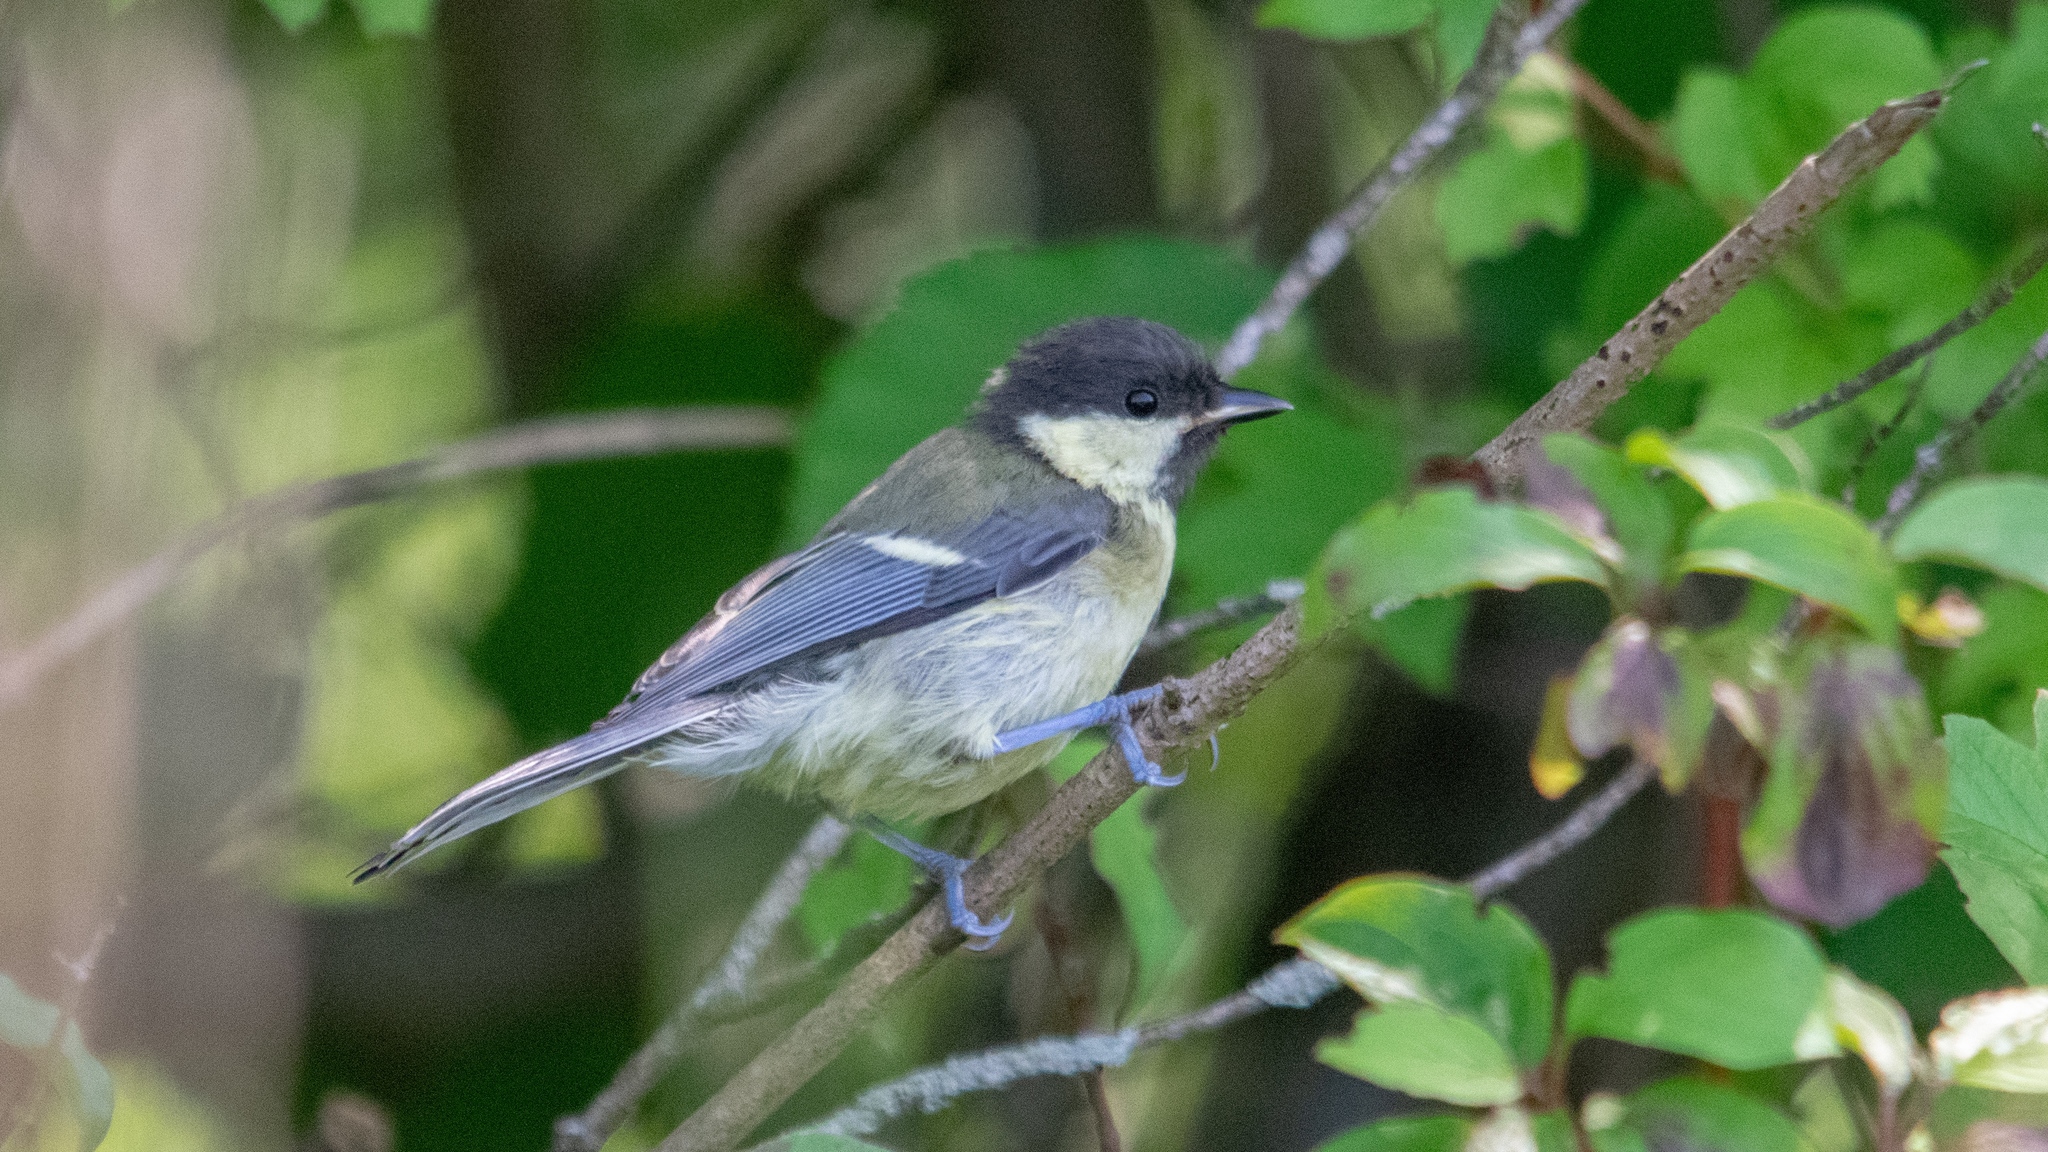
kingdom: Animalia
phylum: Chordata
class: Aves
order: Passeriformes
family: Paridae
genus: Parus
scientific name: Parus major
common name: Great tit
